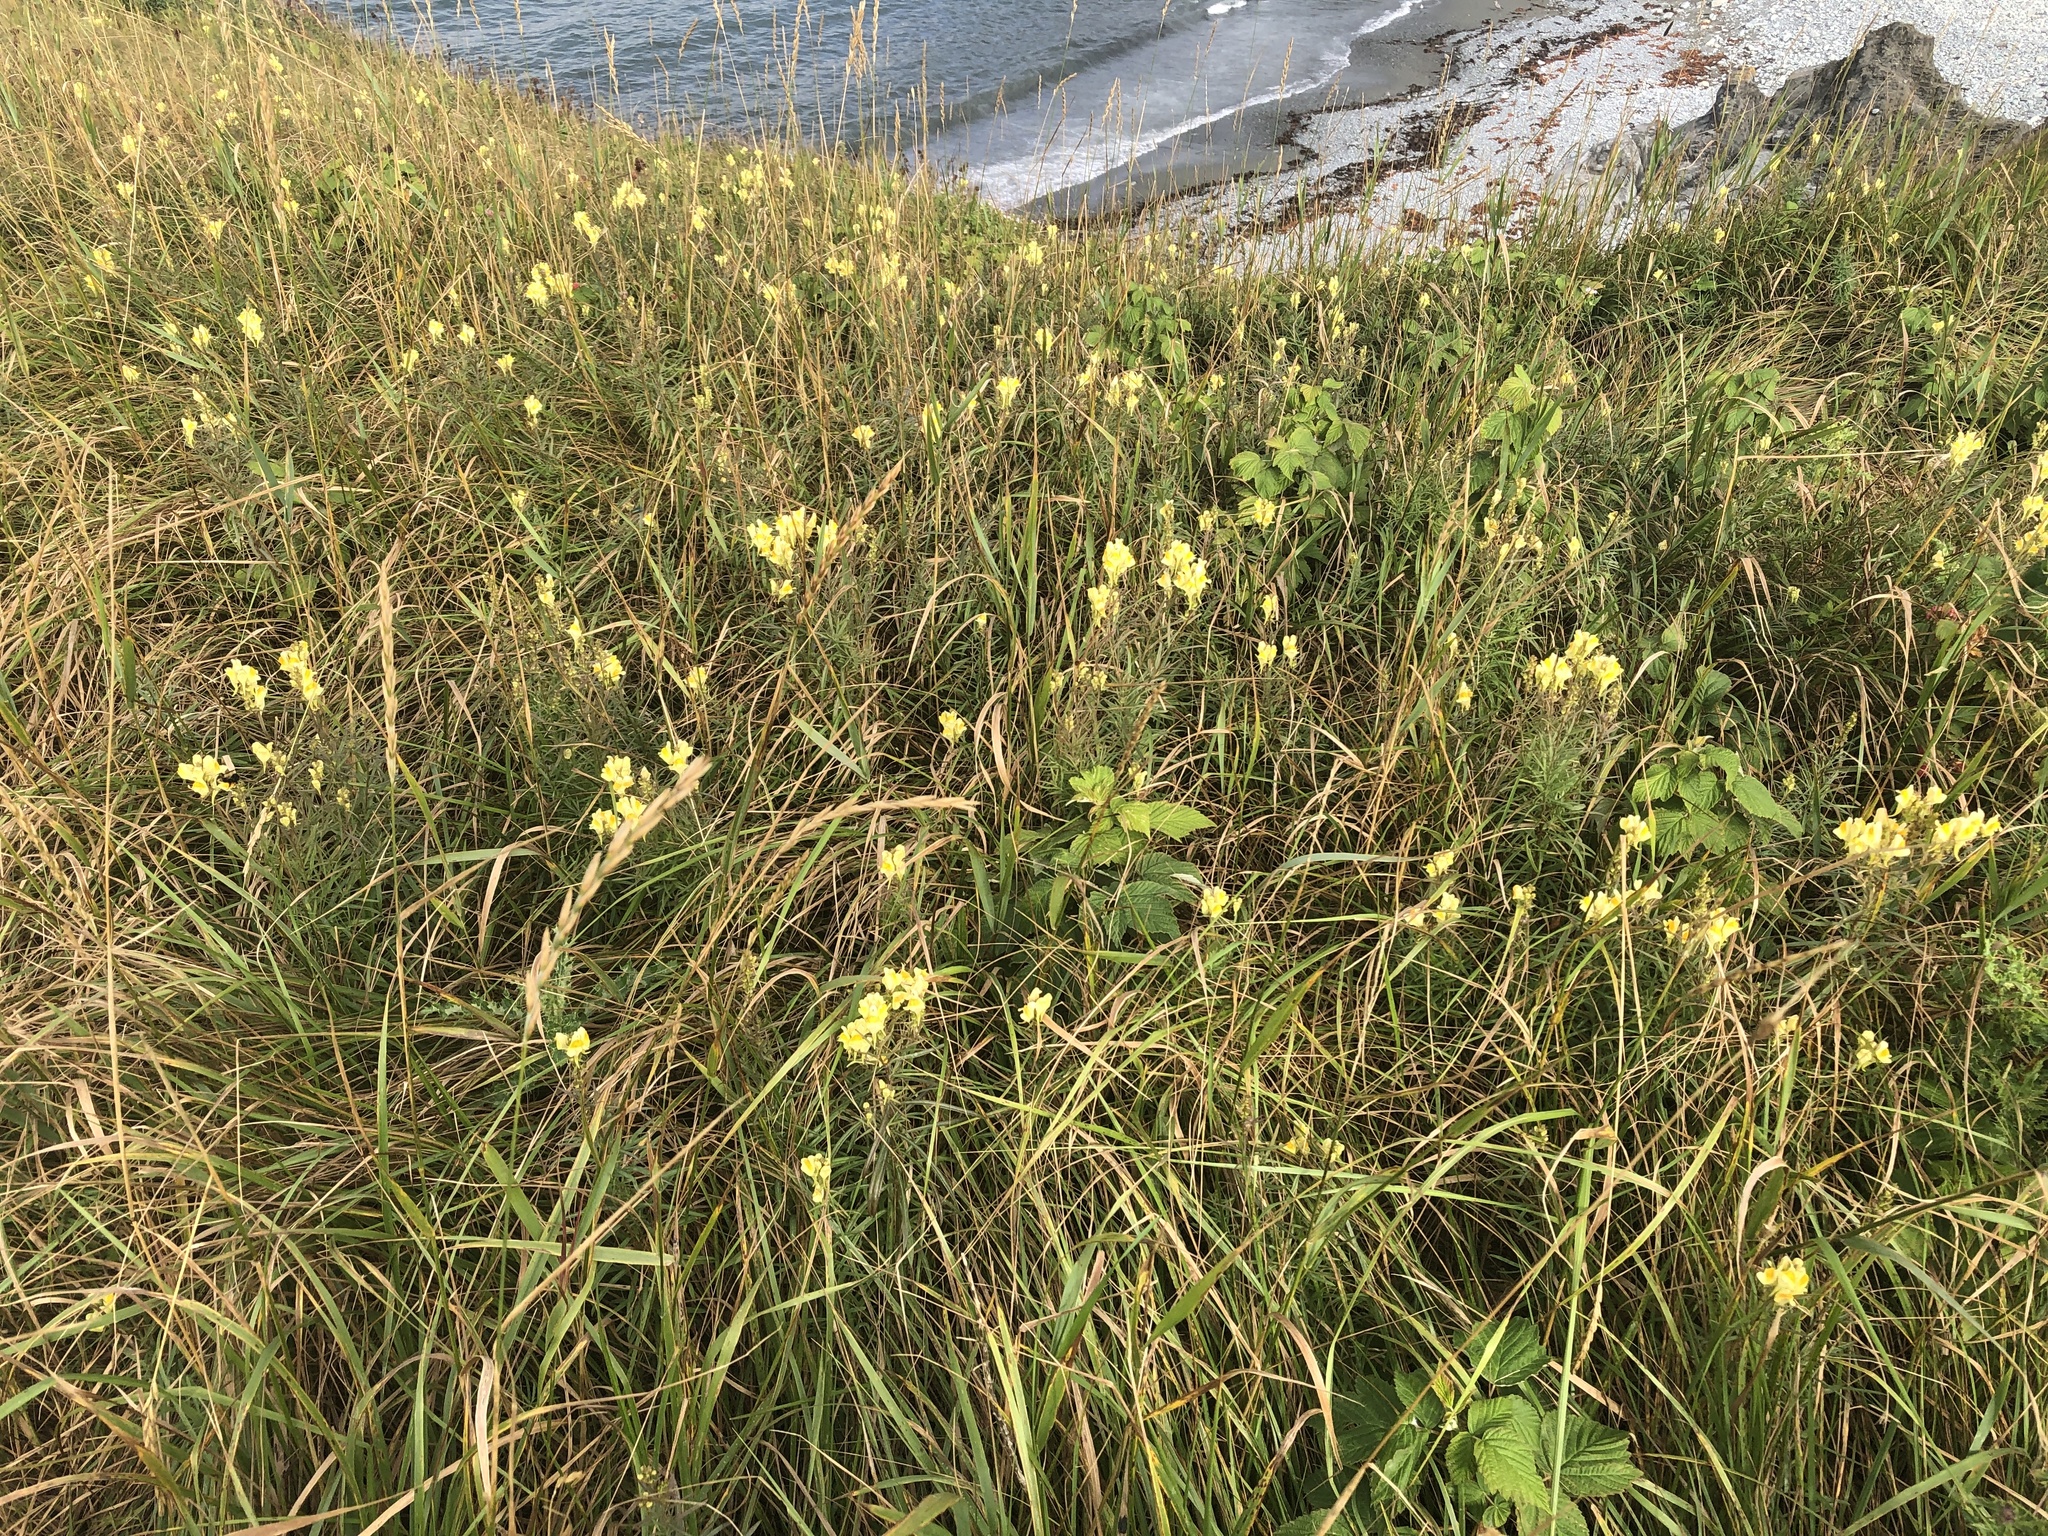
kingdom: Plantae
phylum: Tracheophyta
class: Magnoliopsida
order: Lamiales
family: Plantaginaceae
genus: Linaria
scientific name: Linaria vulgaris
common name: Butter and eggs
